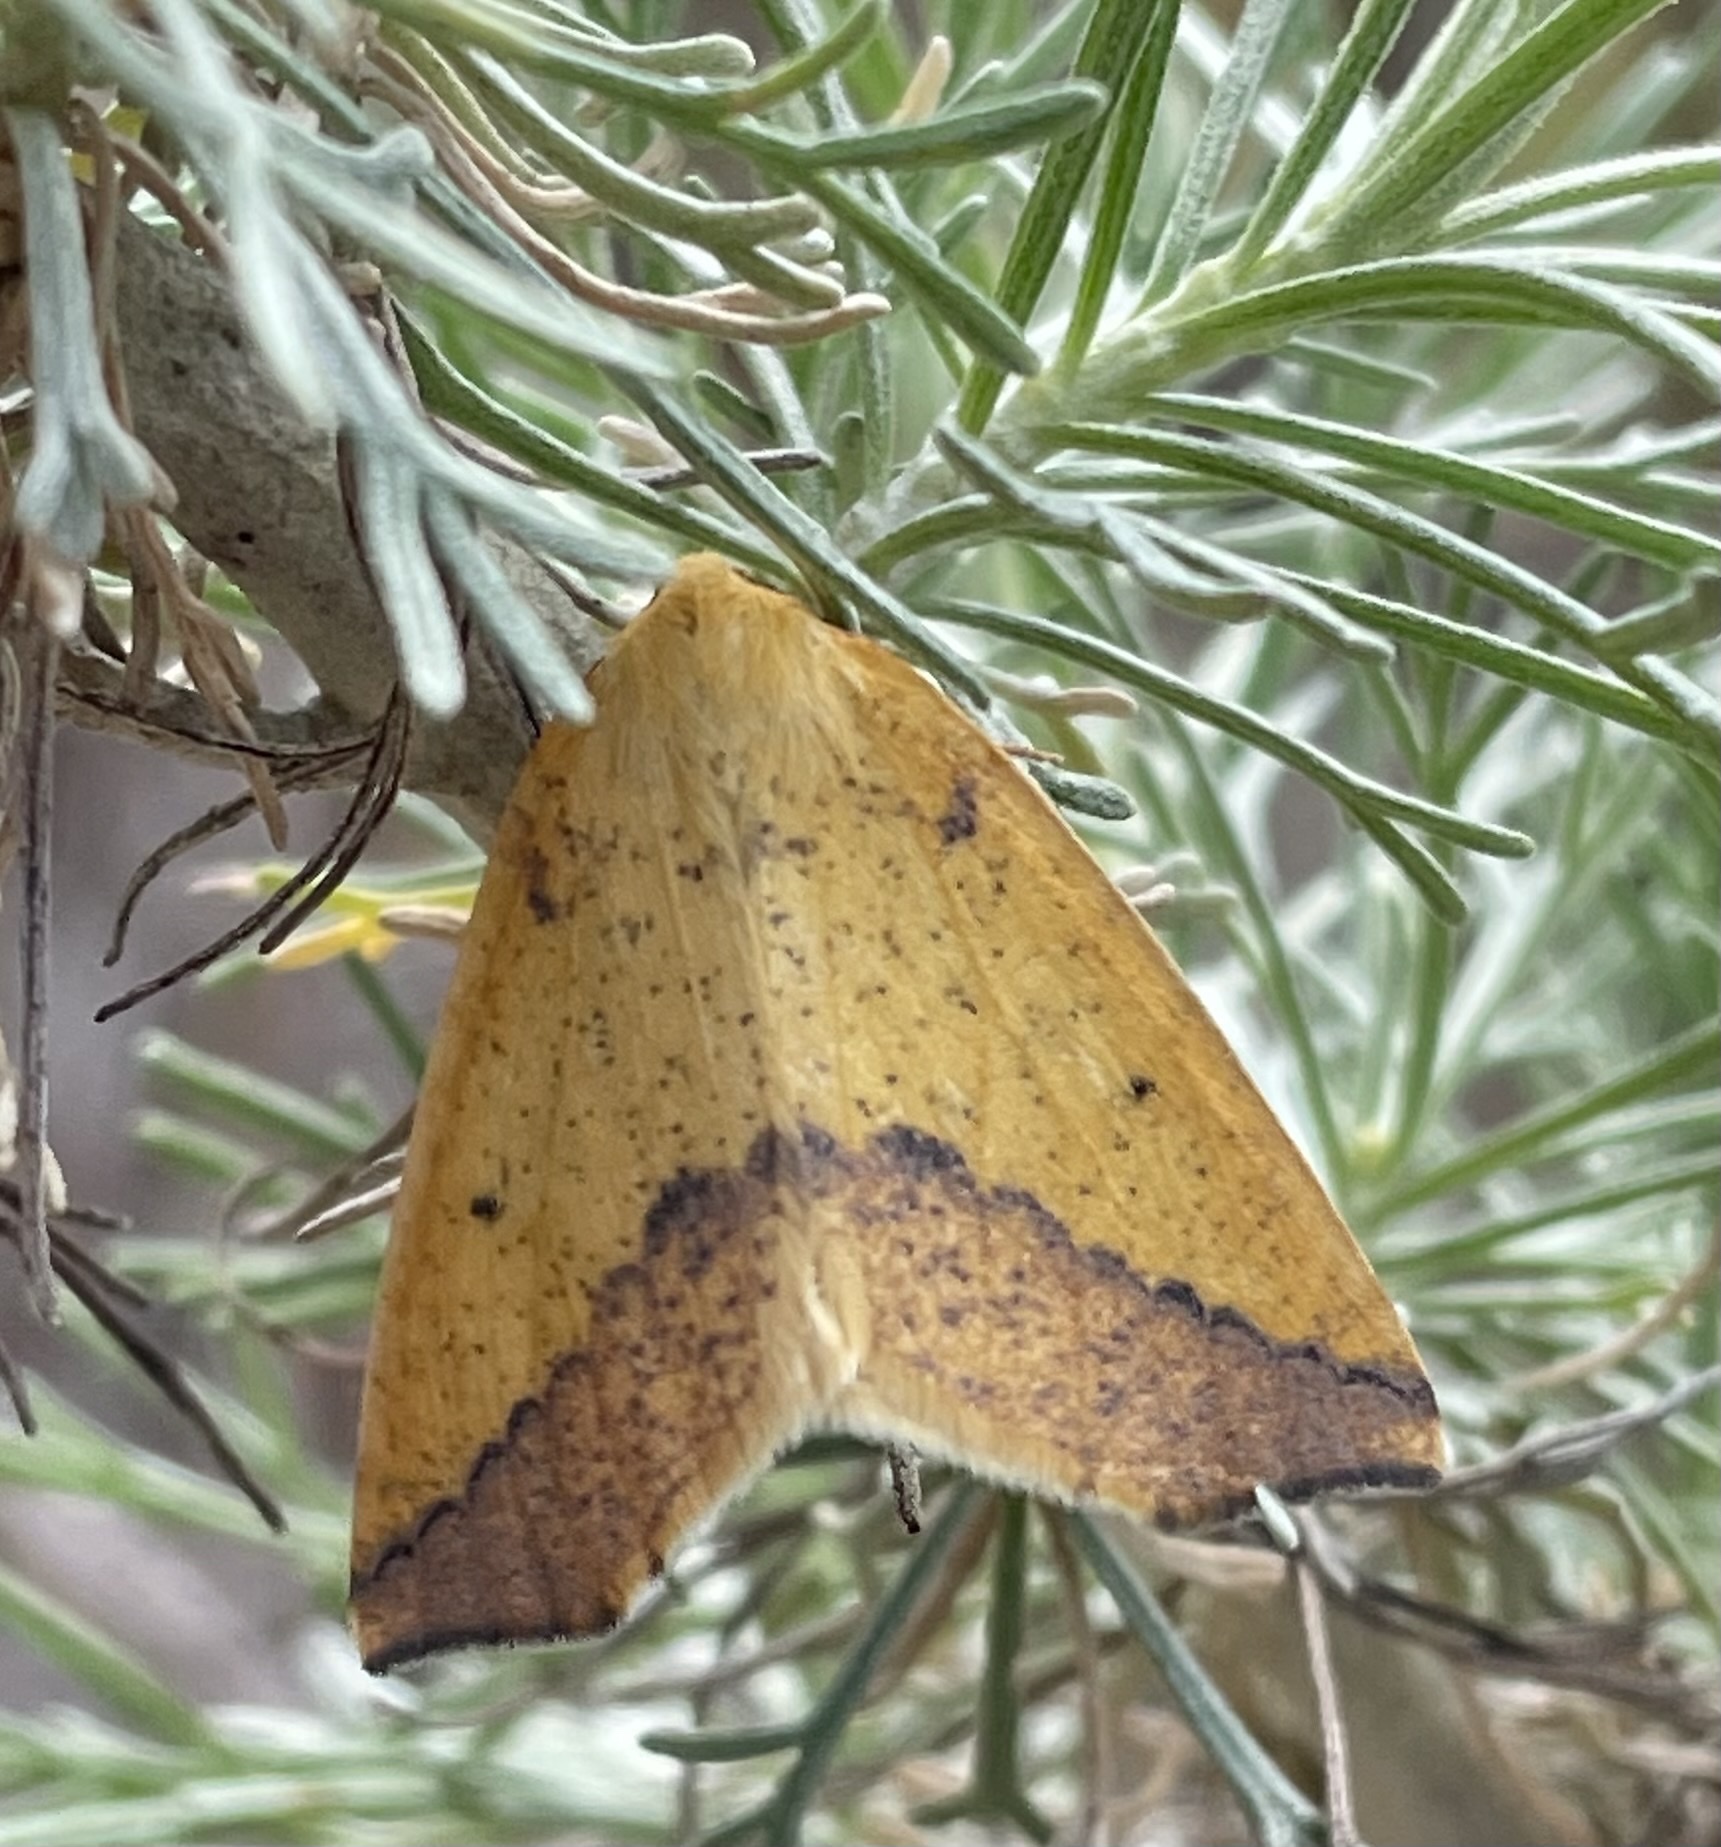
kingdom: Animalia
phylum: Arthropoda
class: Insecta
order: Lepidoptera
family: Geometridae
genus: Neoterpes
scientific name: Neoterpes edwardsata
